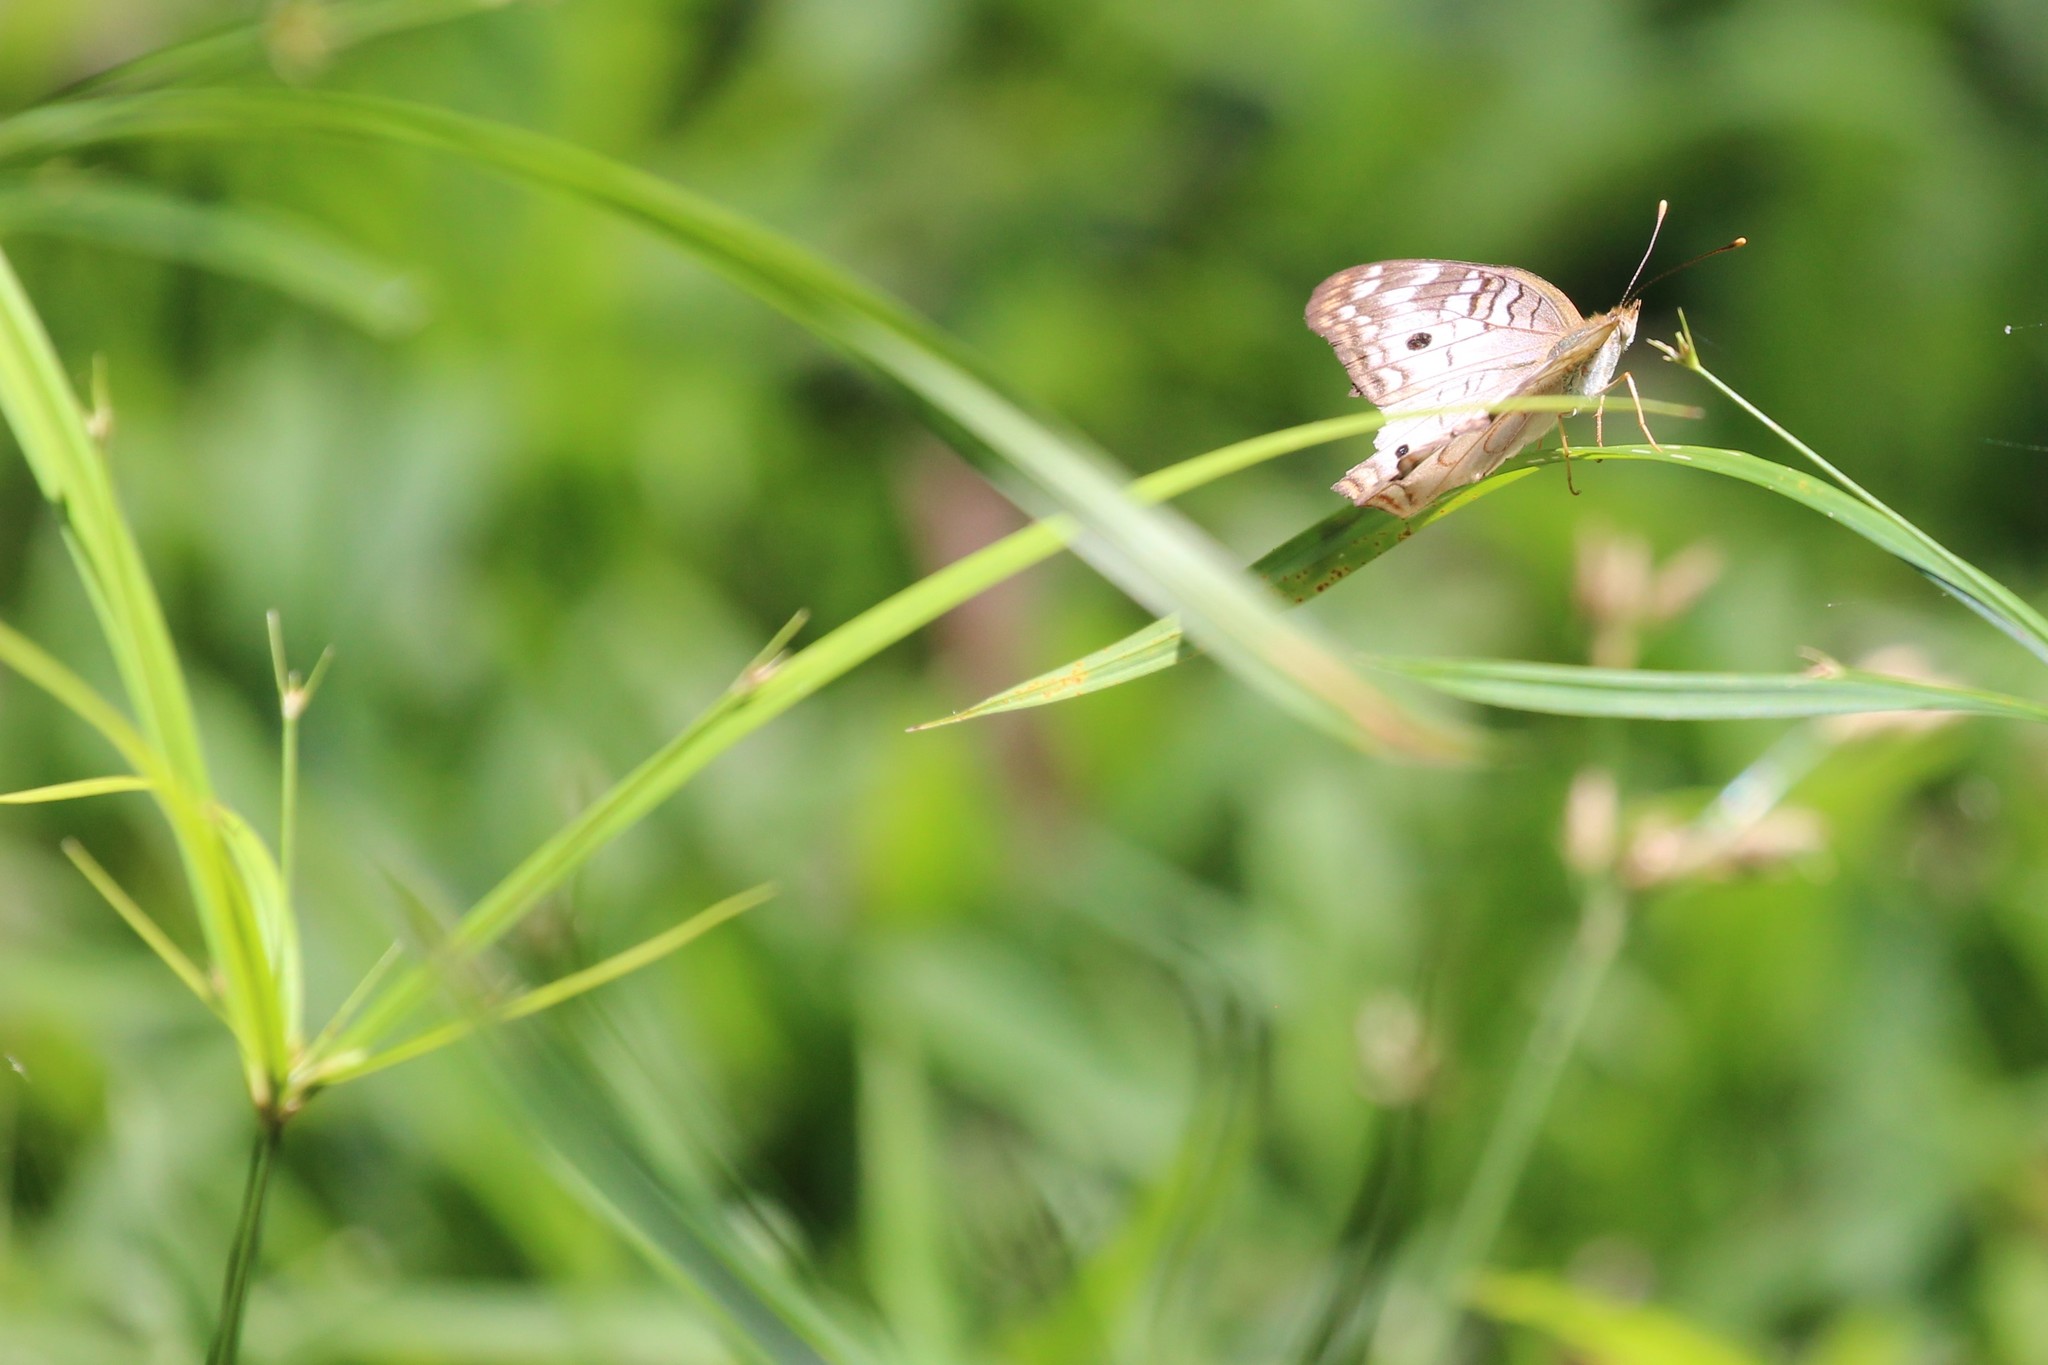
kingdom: Animalia
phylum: Arthropoda
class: Insecta
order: Lepidoptera
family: Nymphalidae
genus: Anartia
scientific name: Anartia jatrophae
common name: White peacock
